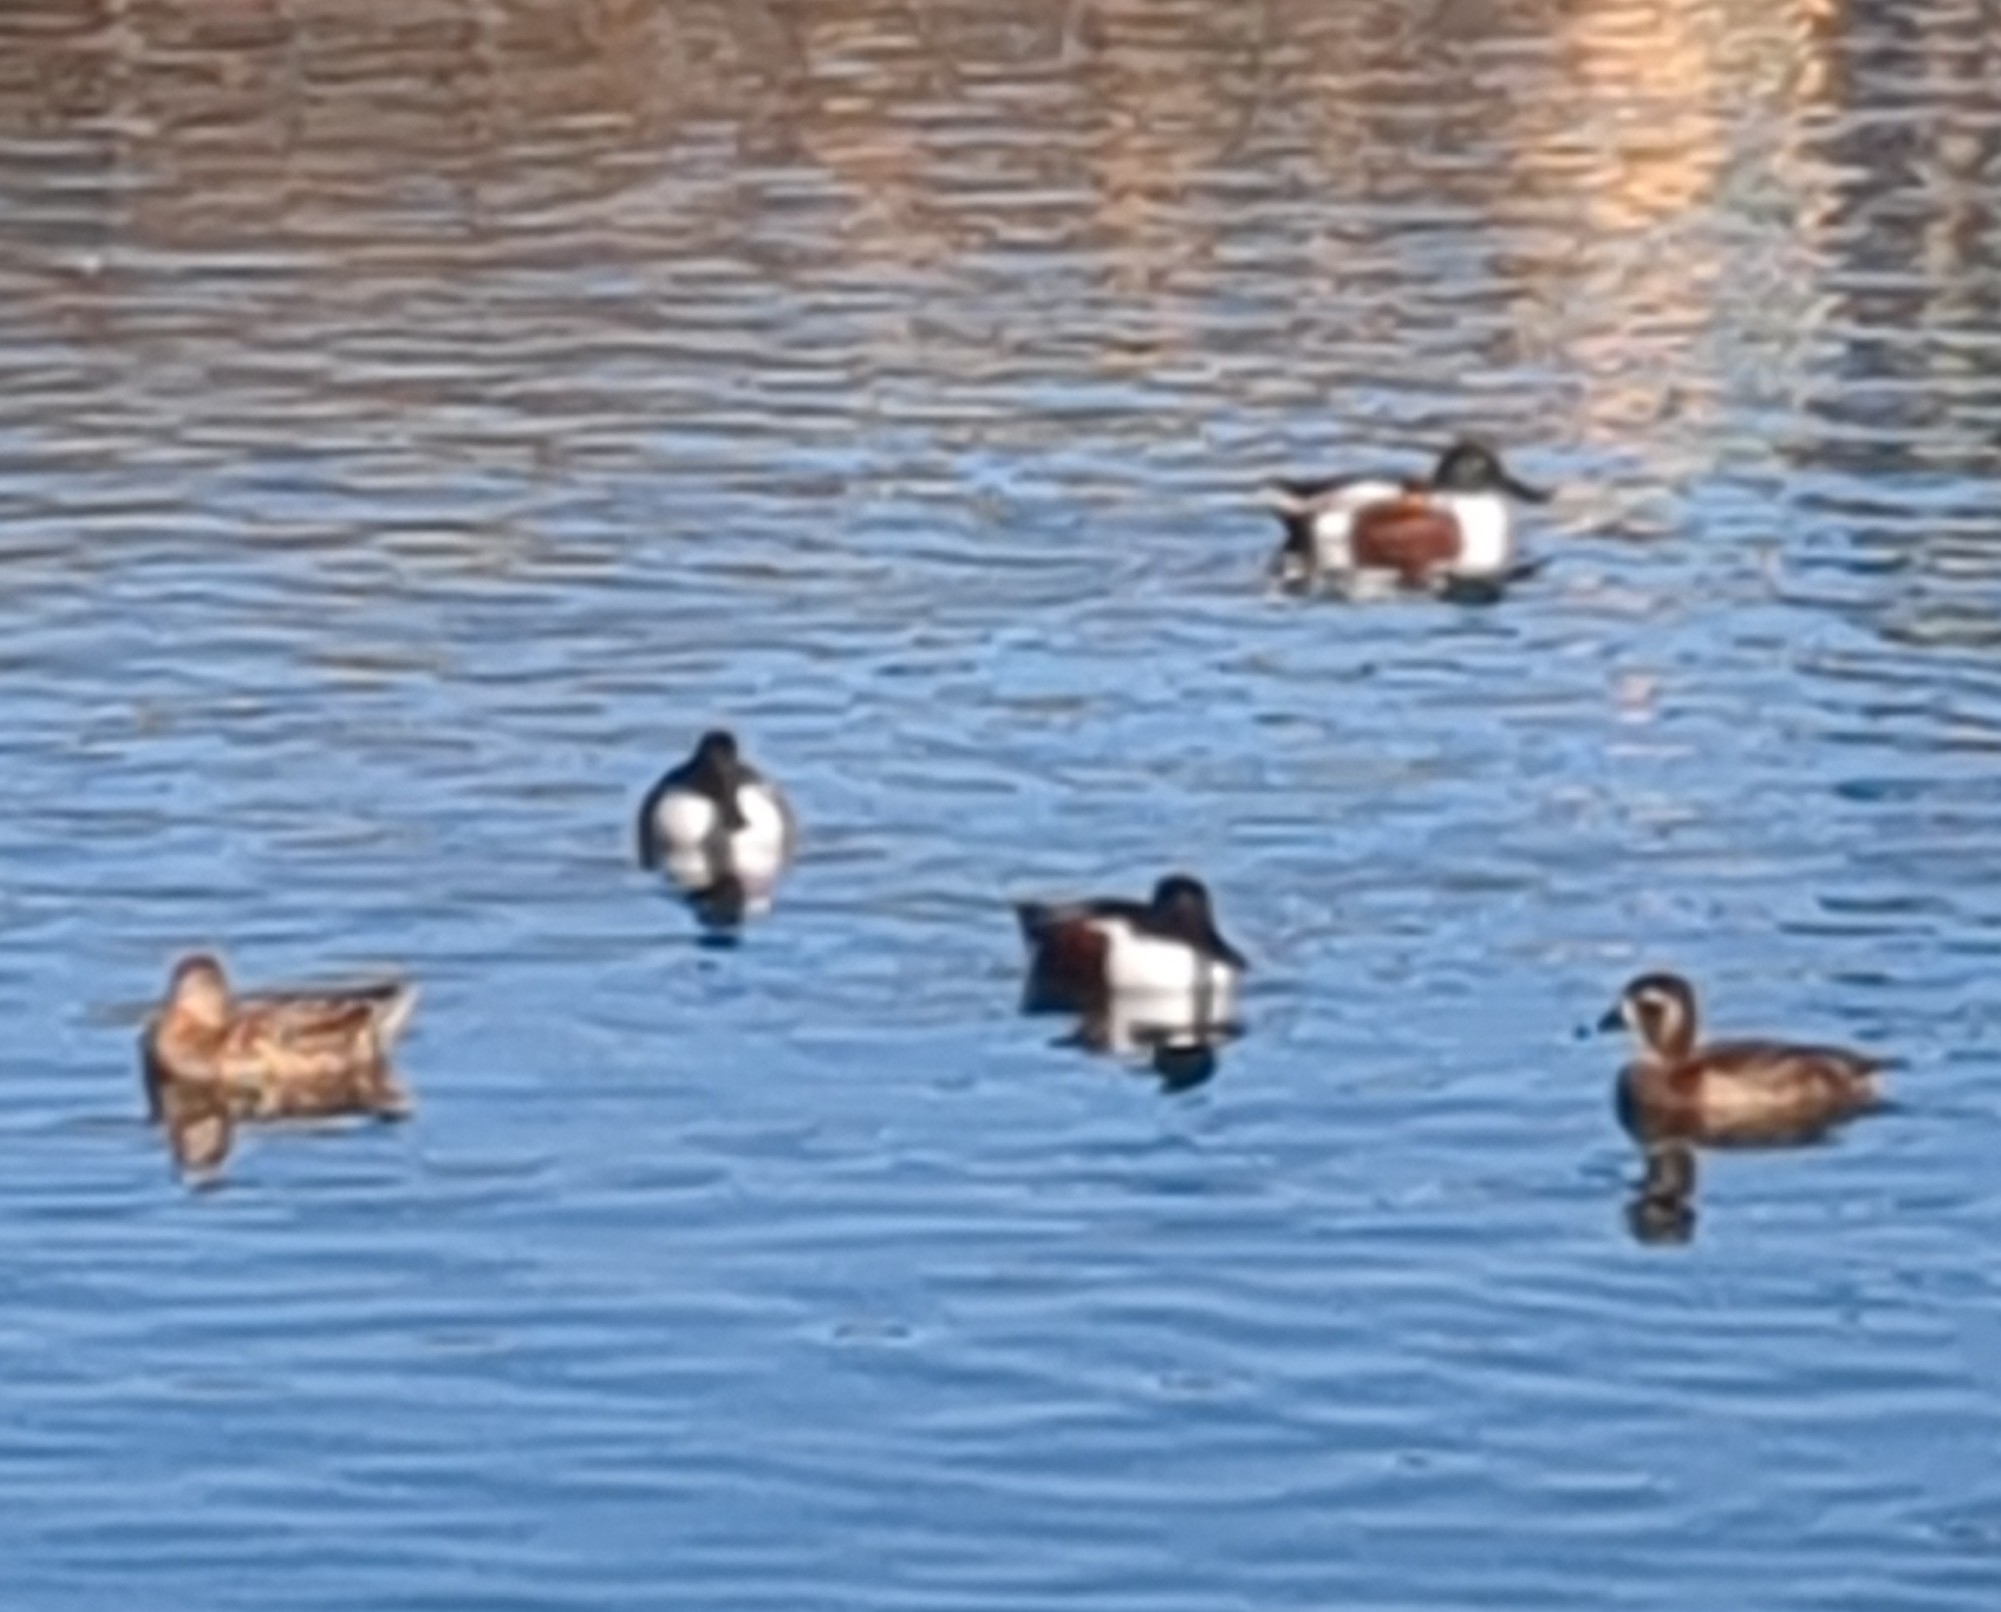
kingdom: Animalia
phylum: Chordata
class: Aves
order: Anseriformes
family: Anatidae
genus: Spatula
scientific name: Spatula clypeata
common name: Northern shoveler
